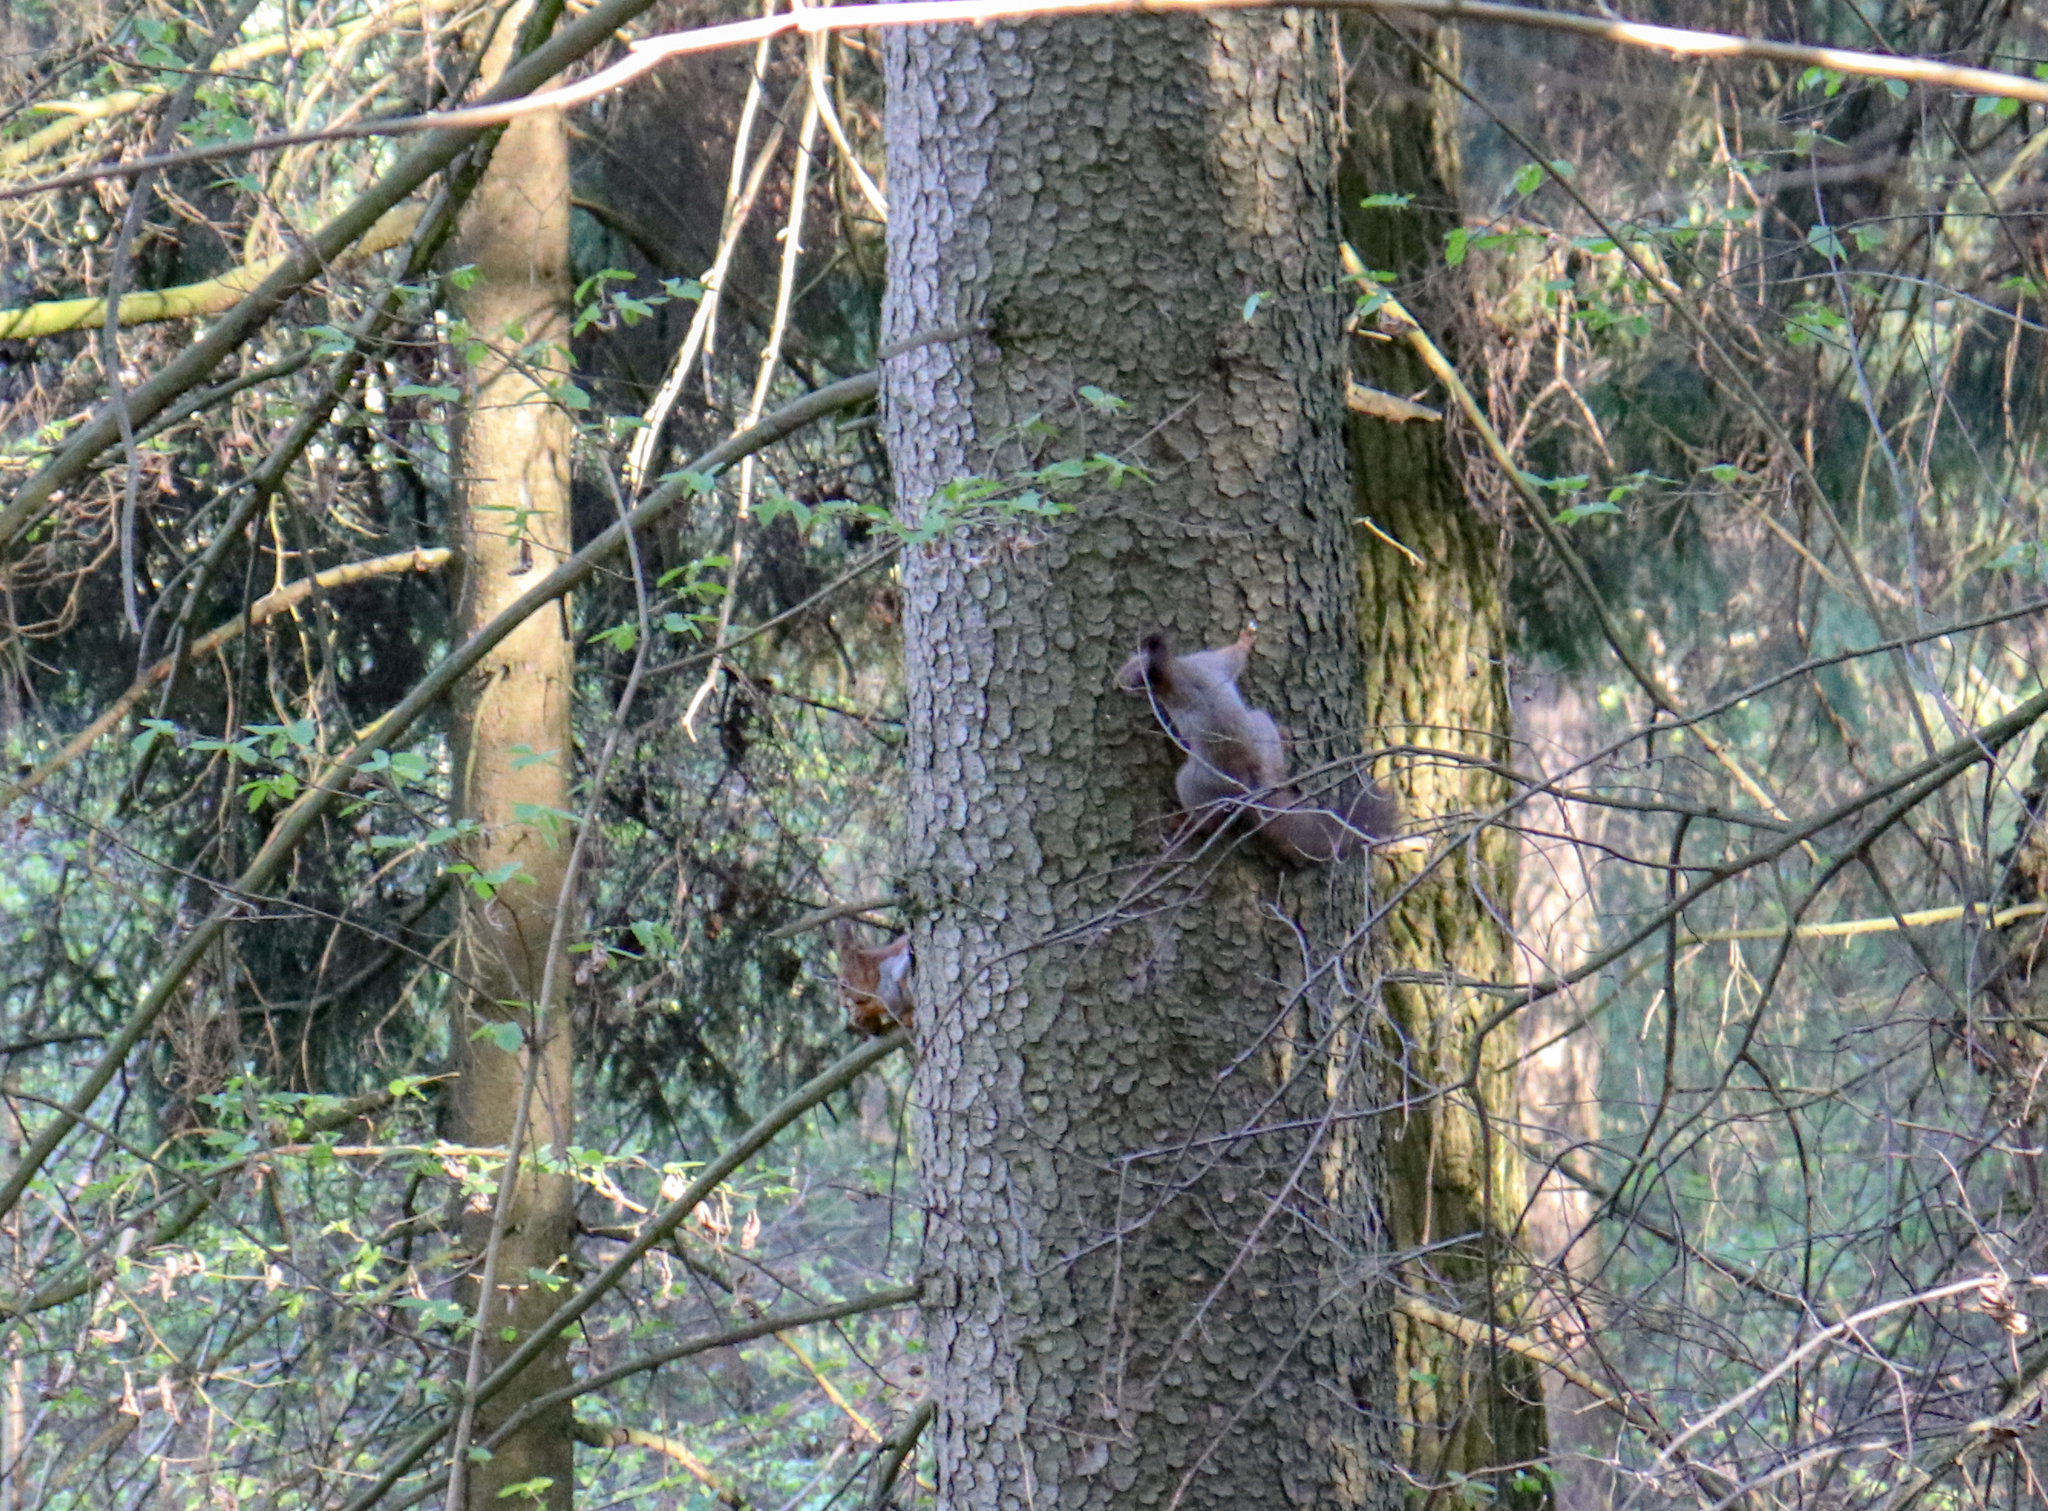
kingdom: Animalia
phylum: Chordata
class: Mammalia
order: Rodentia
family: Sciuridae
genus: Sciurus
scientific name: Sciurus vulgaris
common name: Eurasian red squirrel
